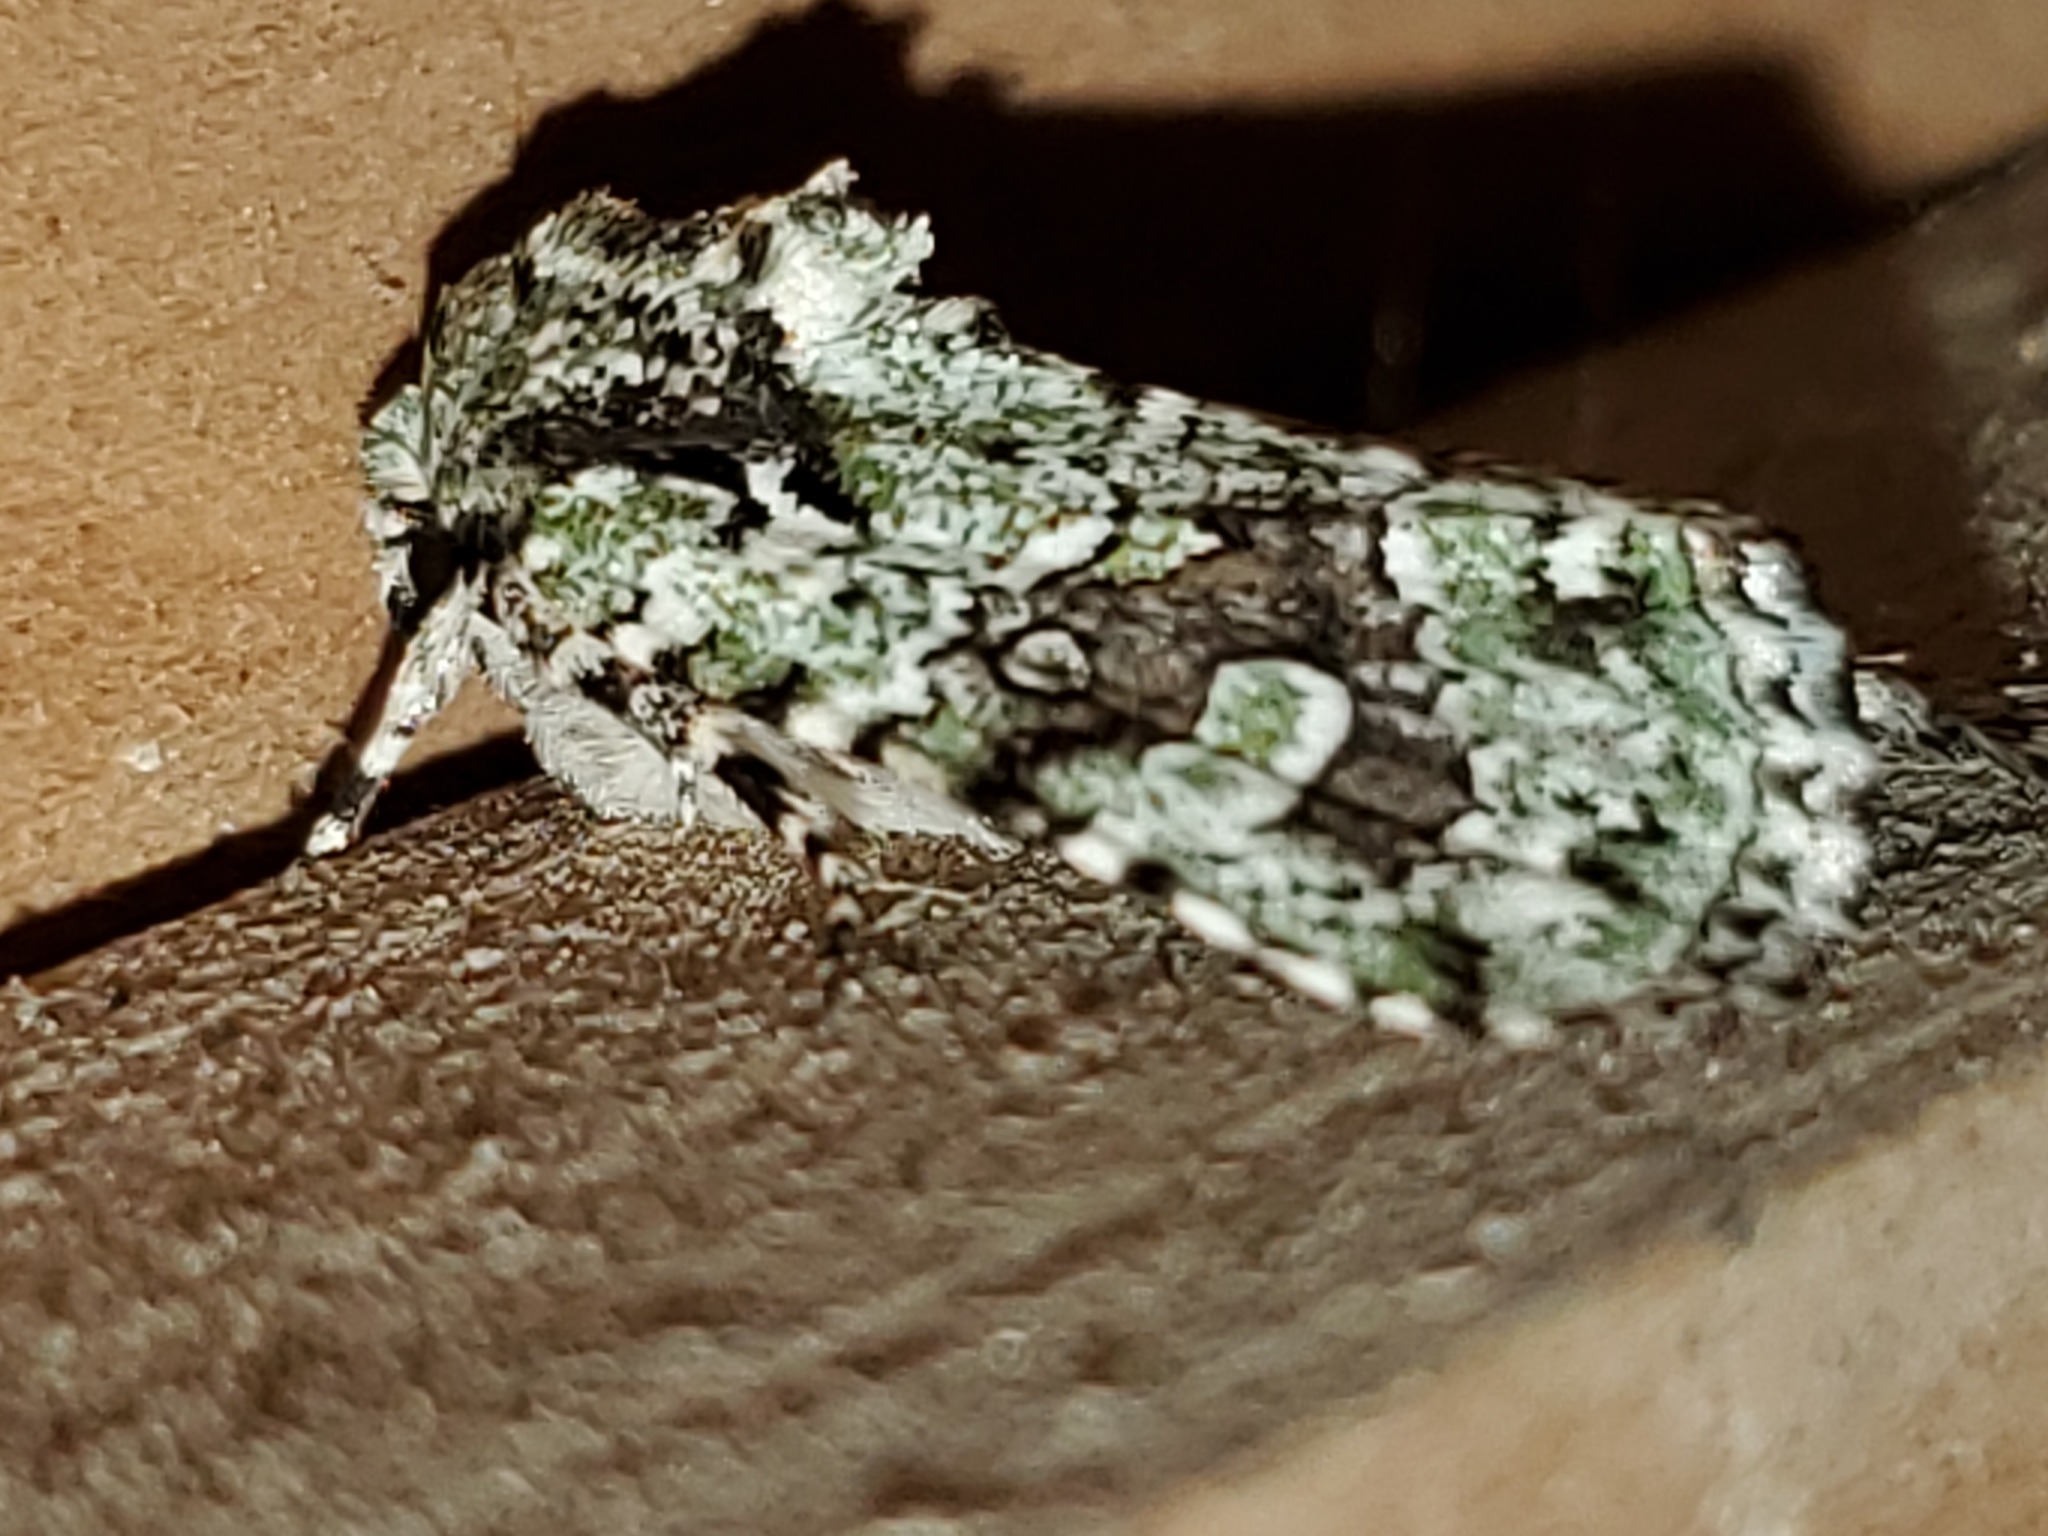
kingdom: Animalia
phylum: Arthropoda
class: Insecta
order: Lepidoptera
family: Noctuidae
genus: Lacinipolia
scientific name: Lacinipolia laudabilis
